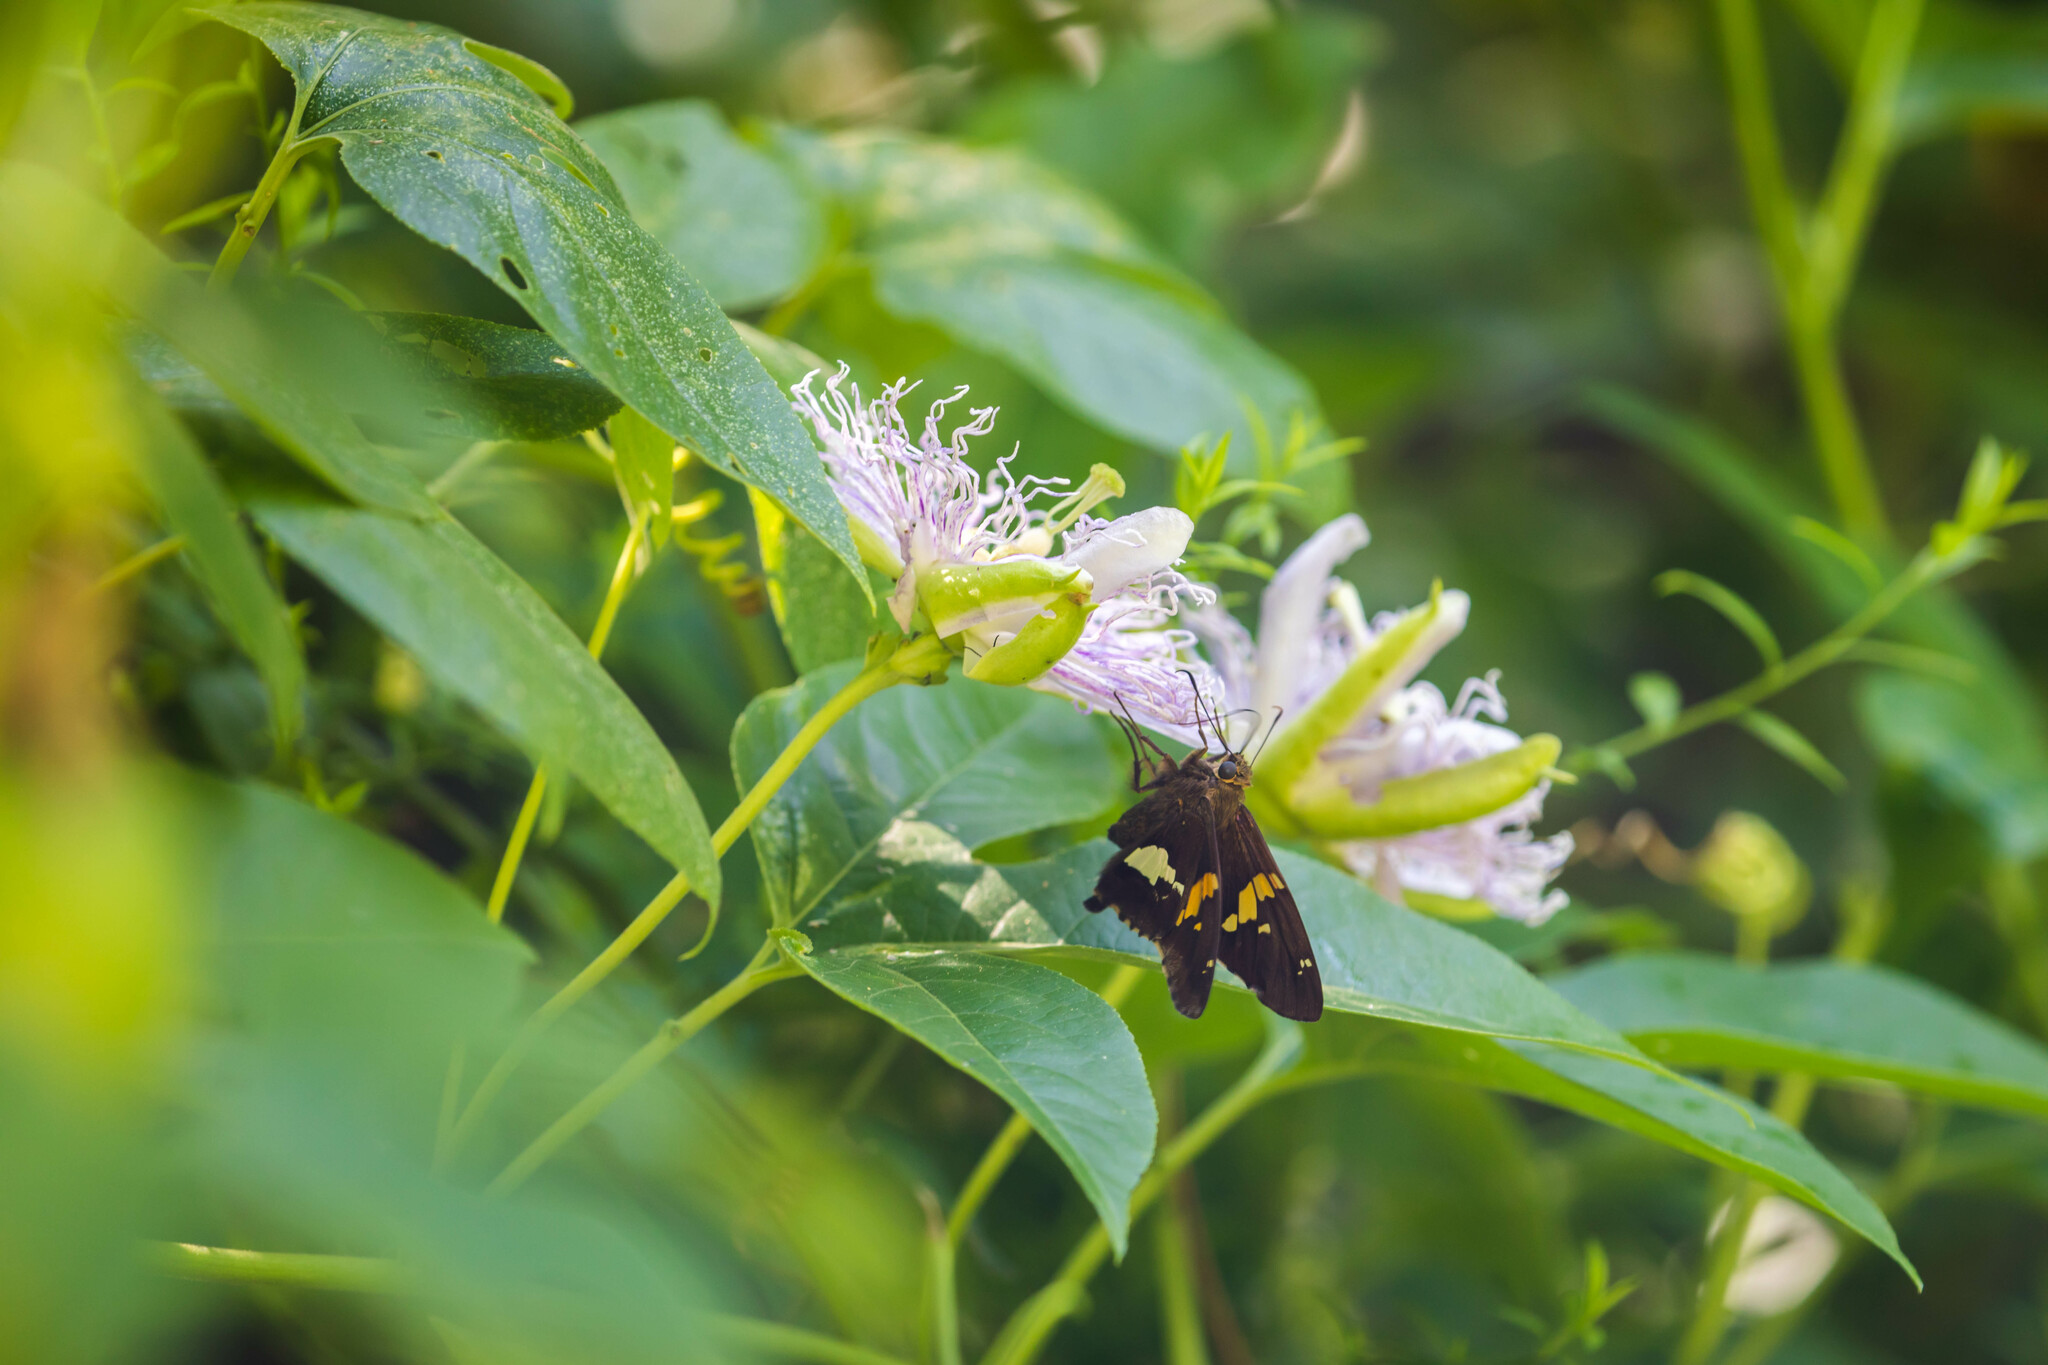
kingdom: Animalia
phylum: Arthropoda
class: Insecta
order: Lepidoptera
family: Hesperiidae
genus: Epargyreus
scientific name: Epargyreus clarus
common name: Silver-spotted skipper
